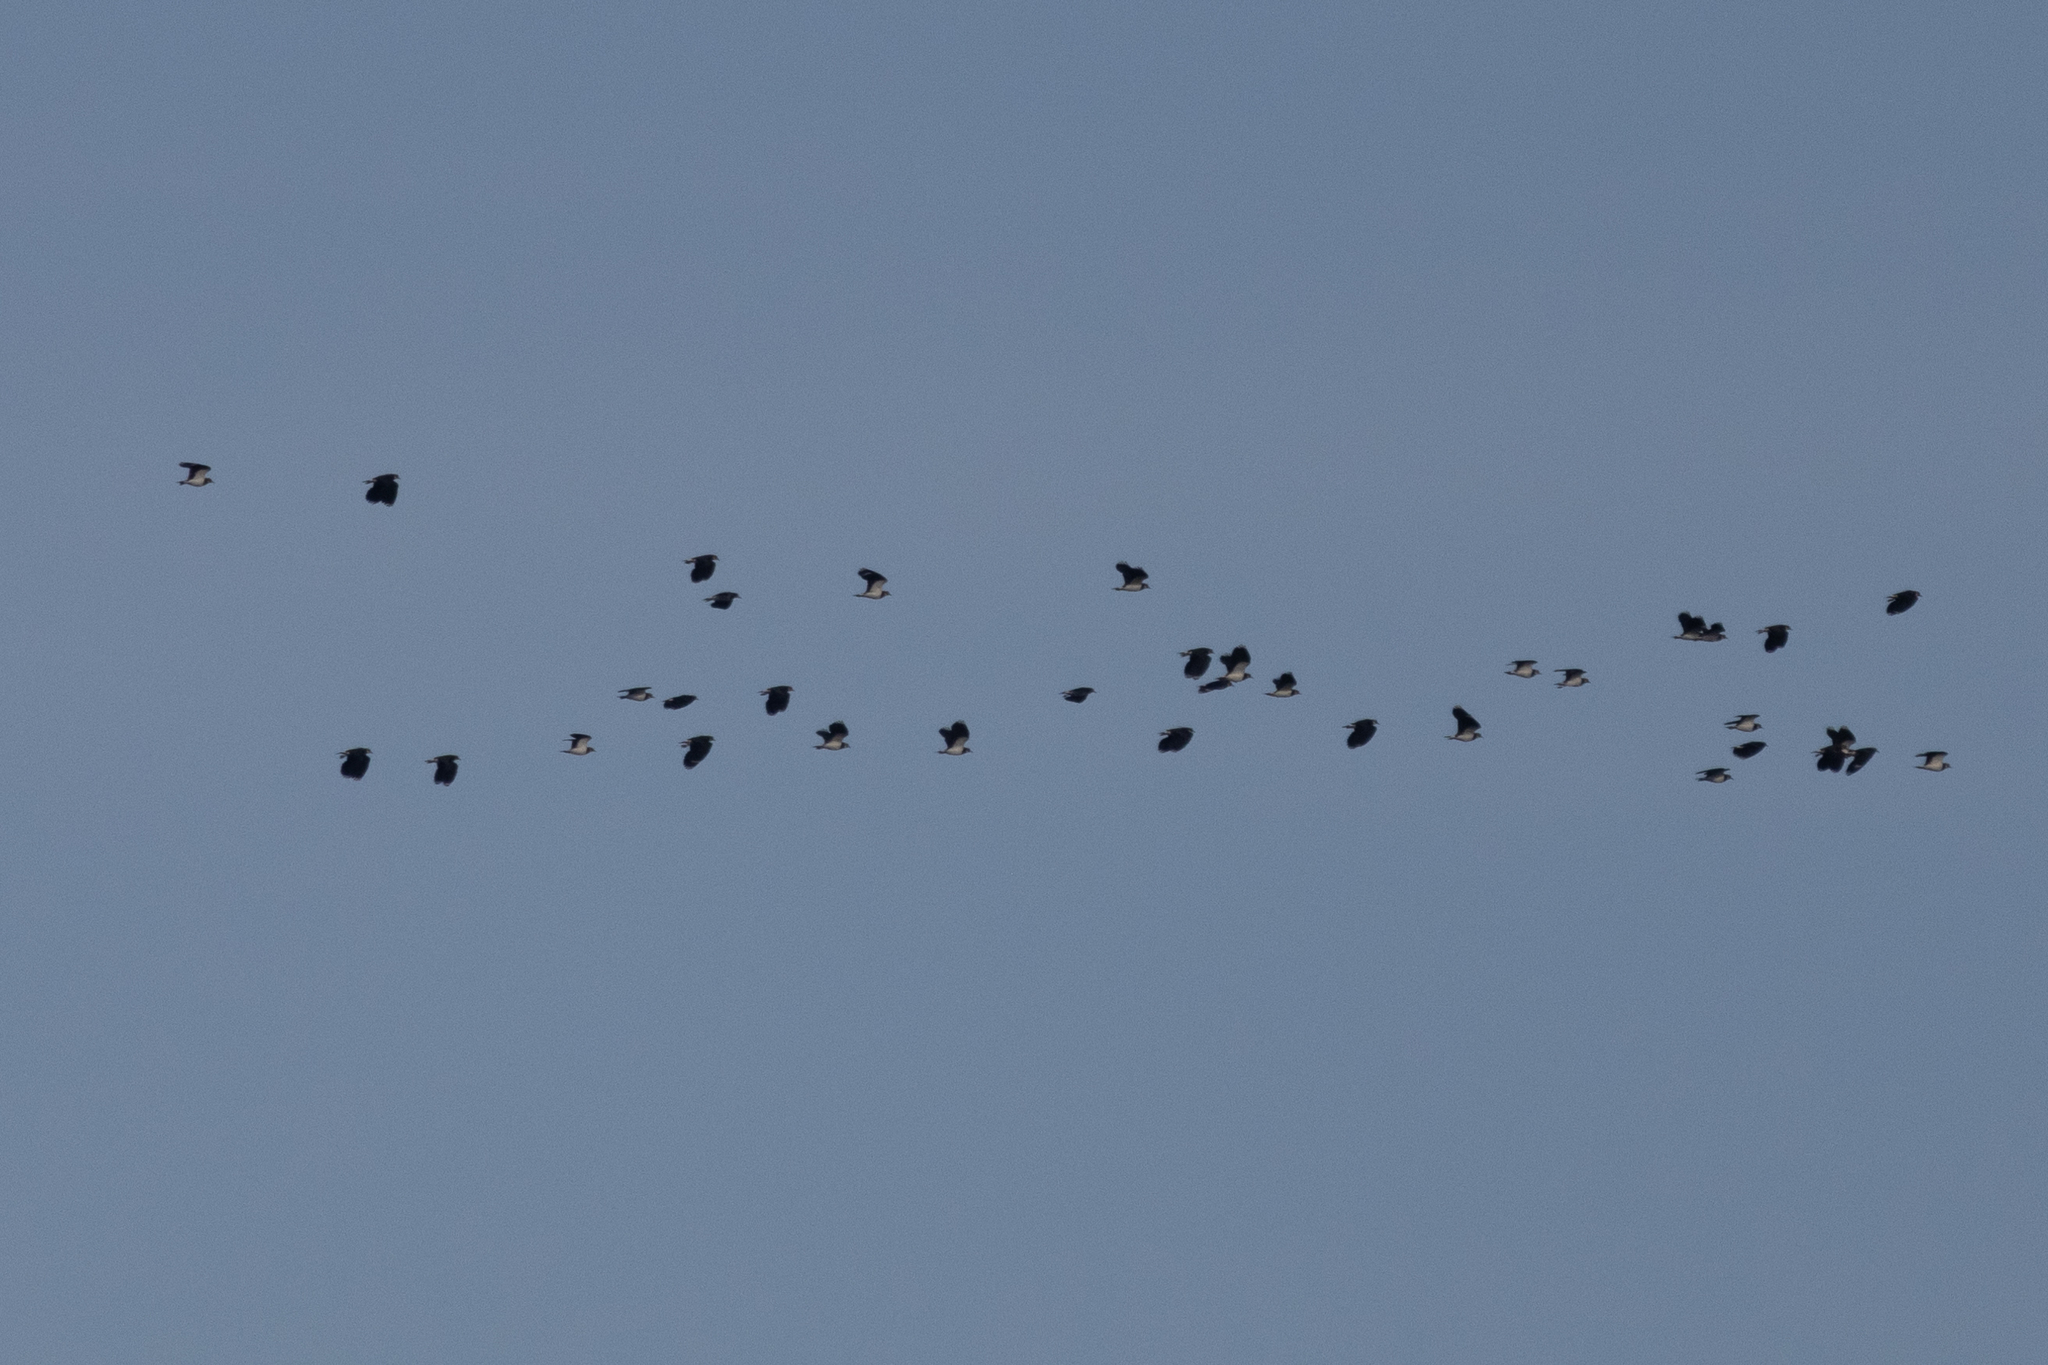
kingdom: Animalia
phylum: Chordata
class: Aves
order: Charadriiformes
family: Charadriidae
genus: Vanellus
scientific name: Vanellus vanellus
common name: Northern lapwing
